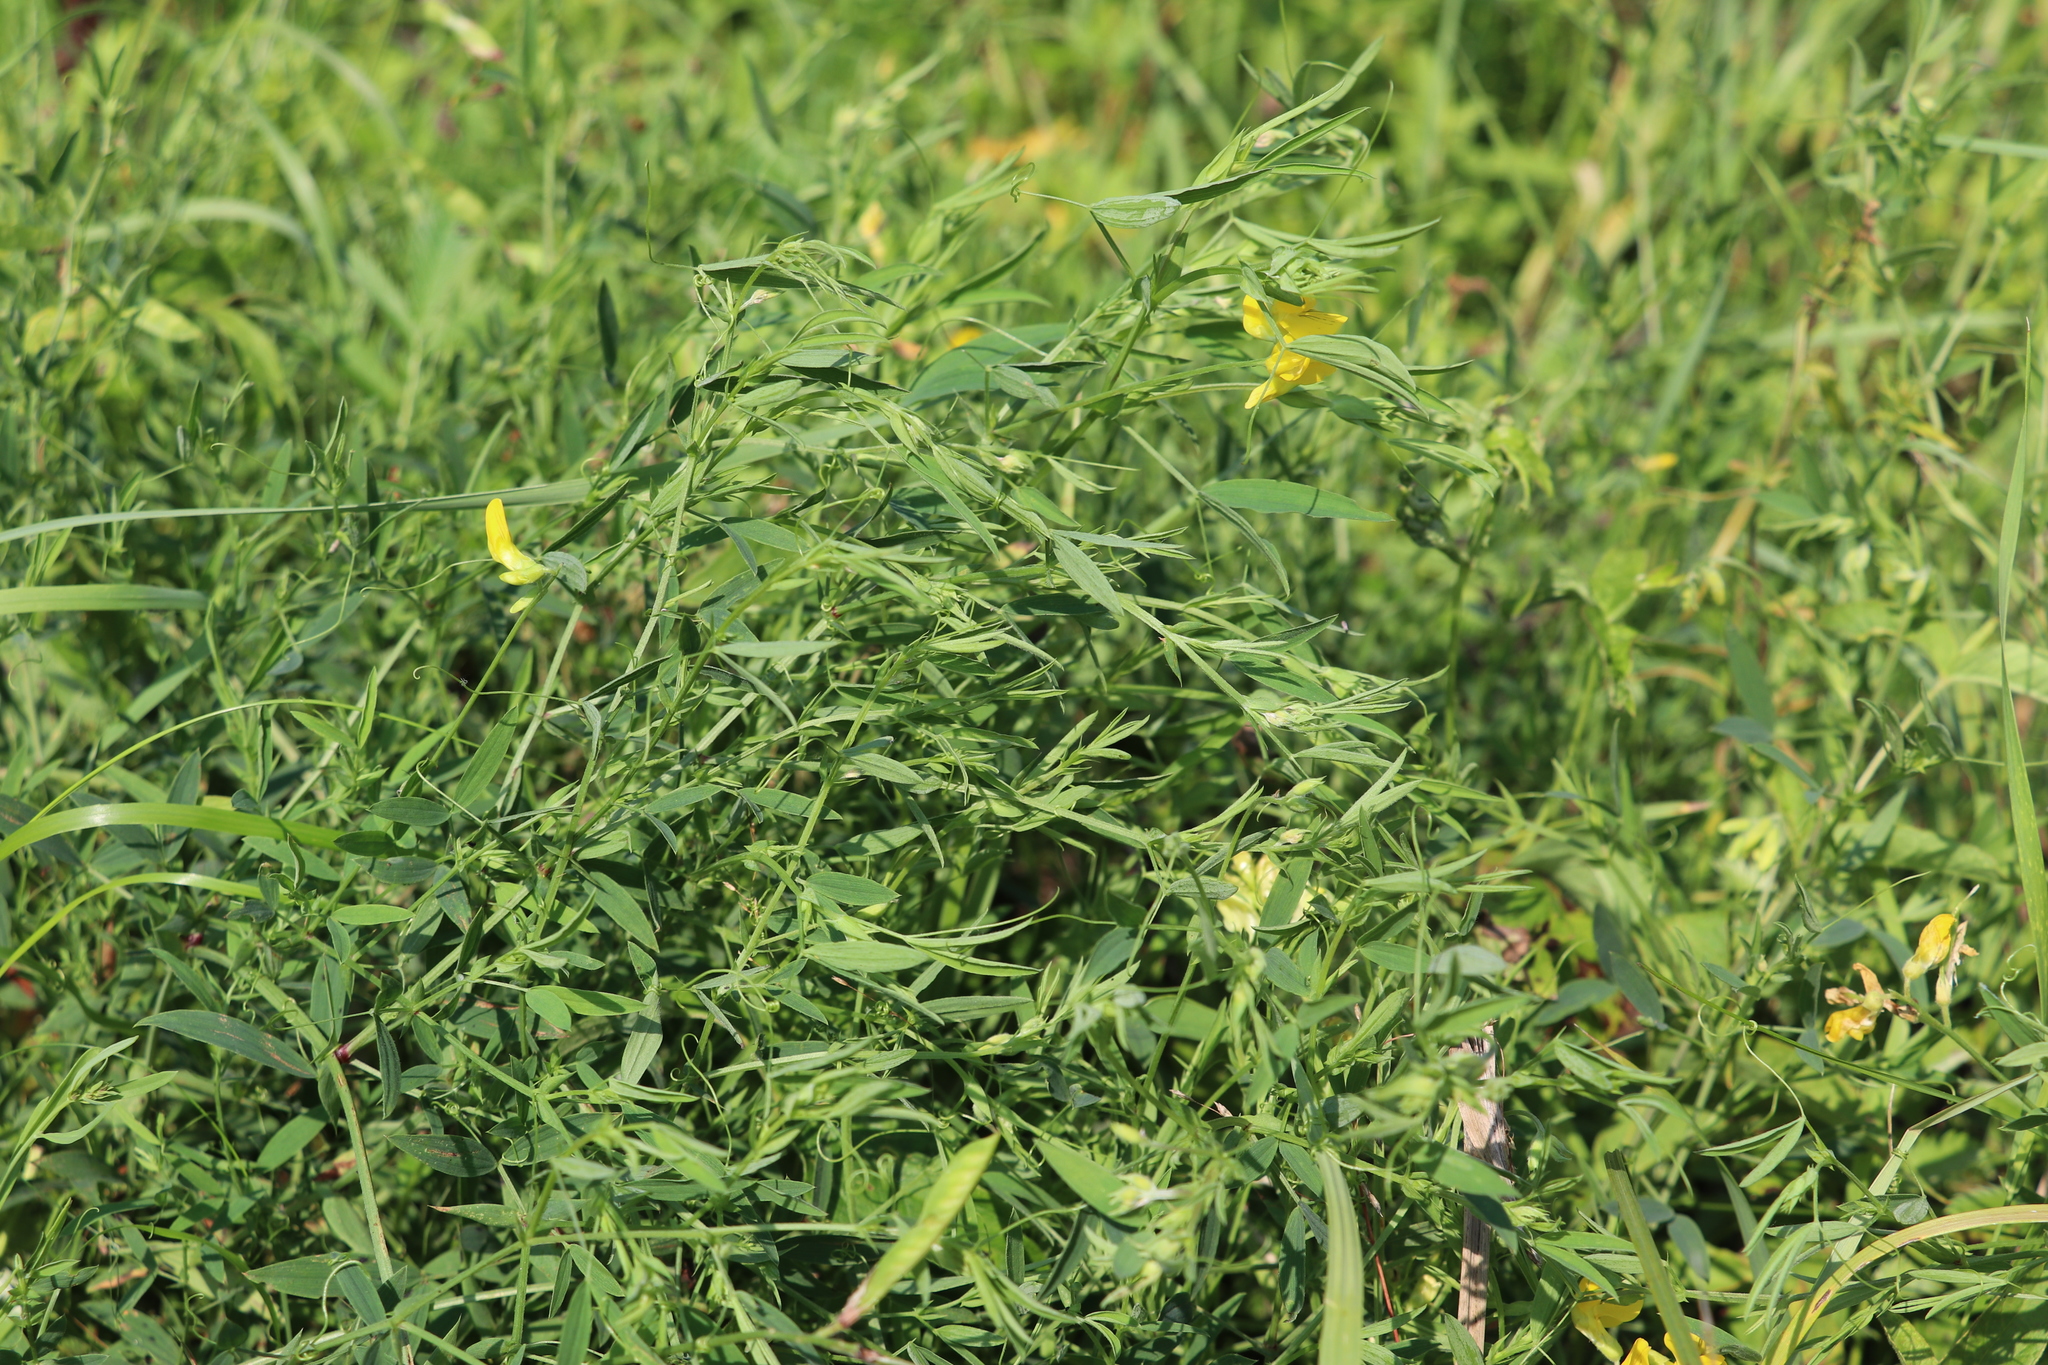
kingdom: Plantae
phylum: Tracheophyta
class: Magnoliopsida
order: Fabales
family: Fabaceae
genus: Lathyrus
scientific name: Lathyrus pratensis
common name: Meadow vetchling
